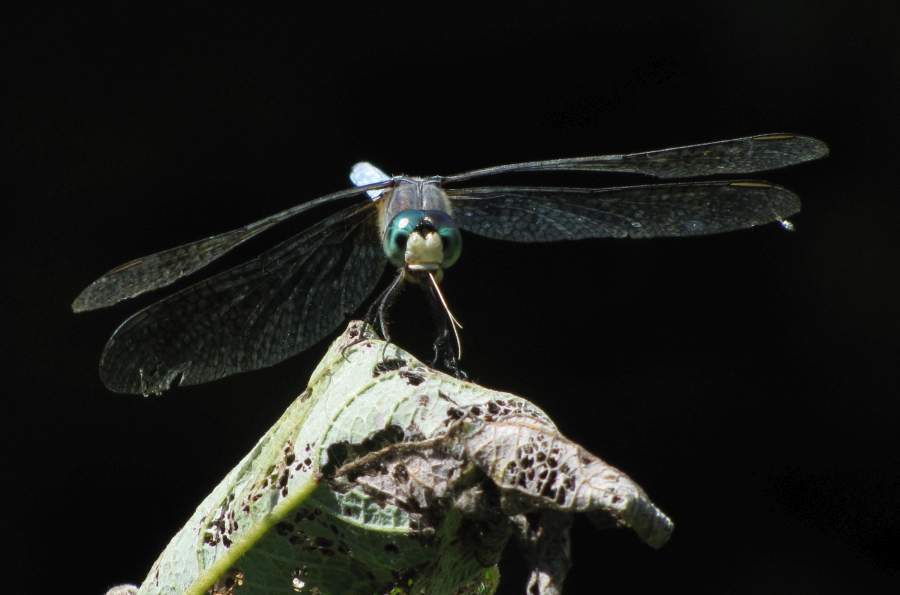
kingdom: Animalia
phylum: Arthropoda
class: Insecta
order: Odonata
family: Libellulidae
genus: Pachydiplax
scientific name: Pachydiplax longipennis
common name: Blue dasher
